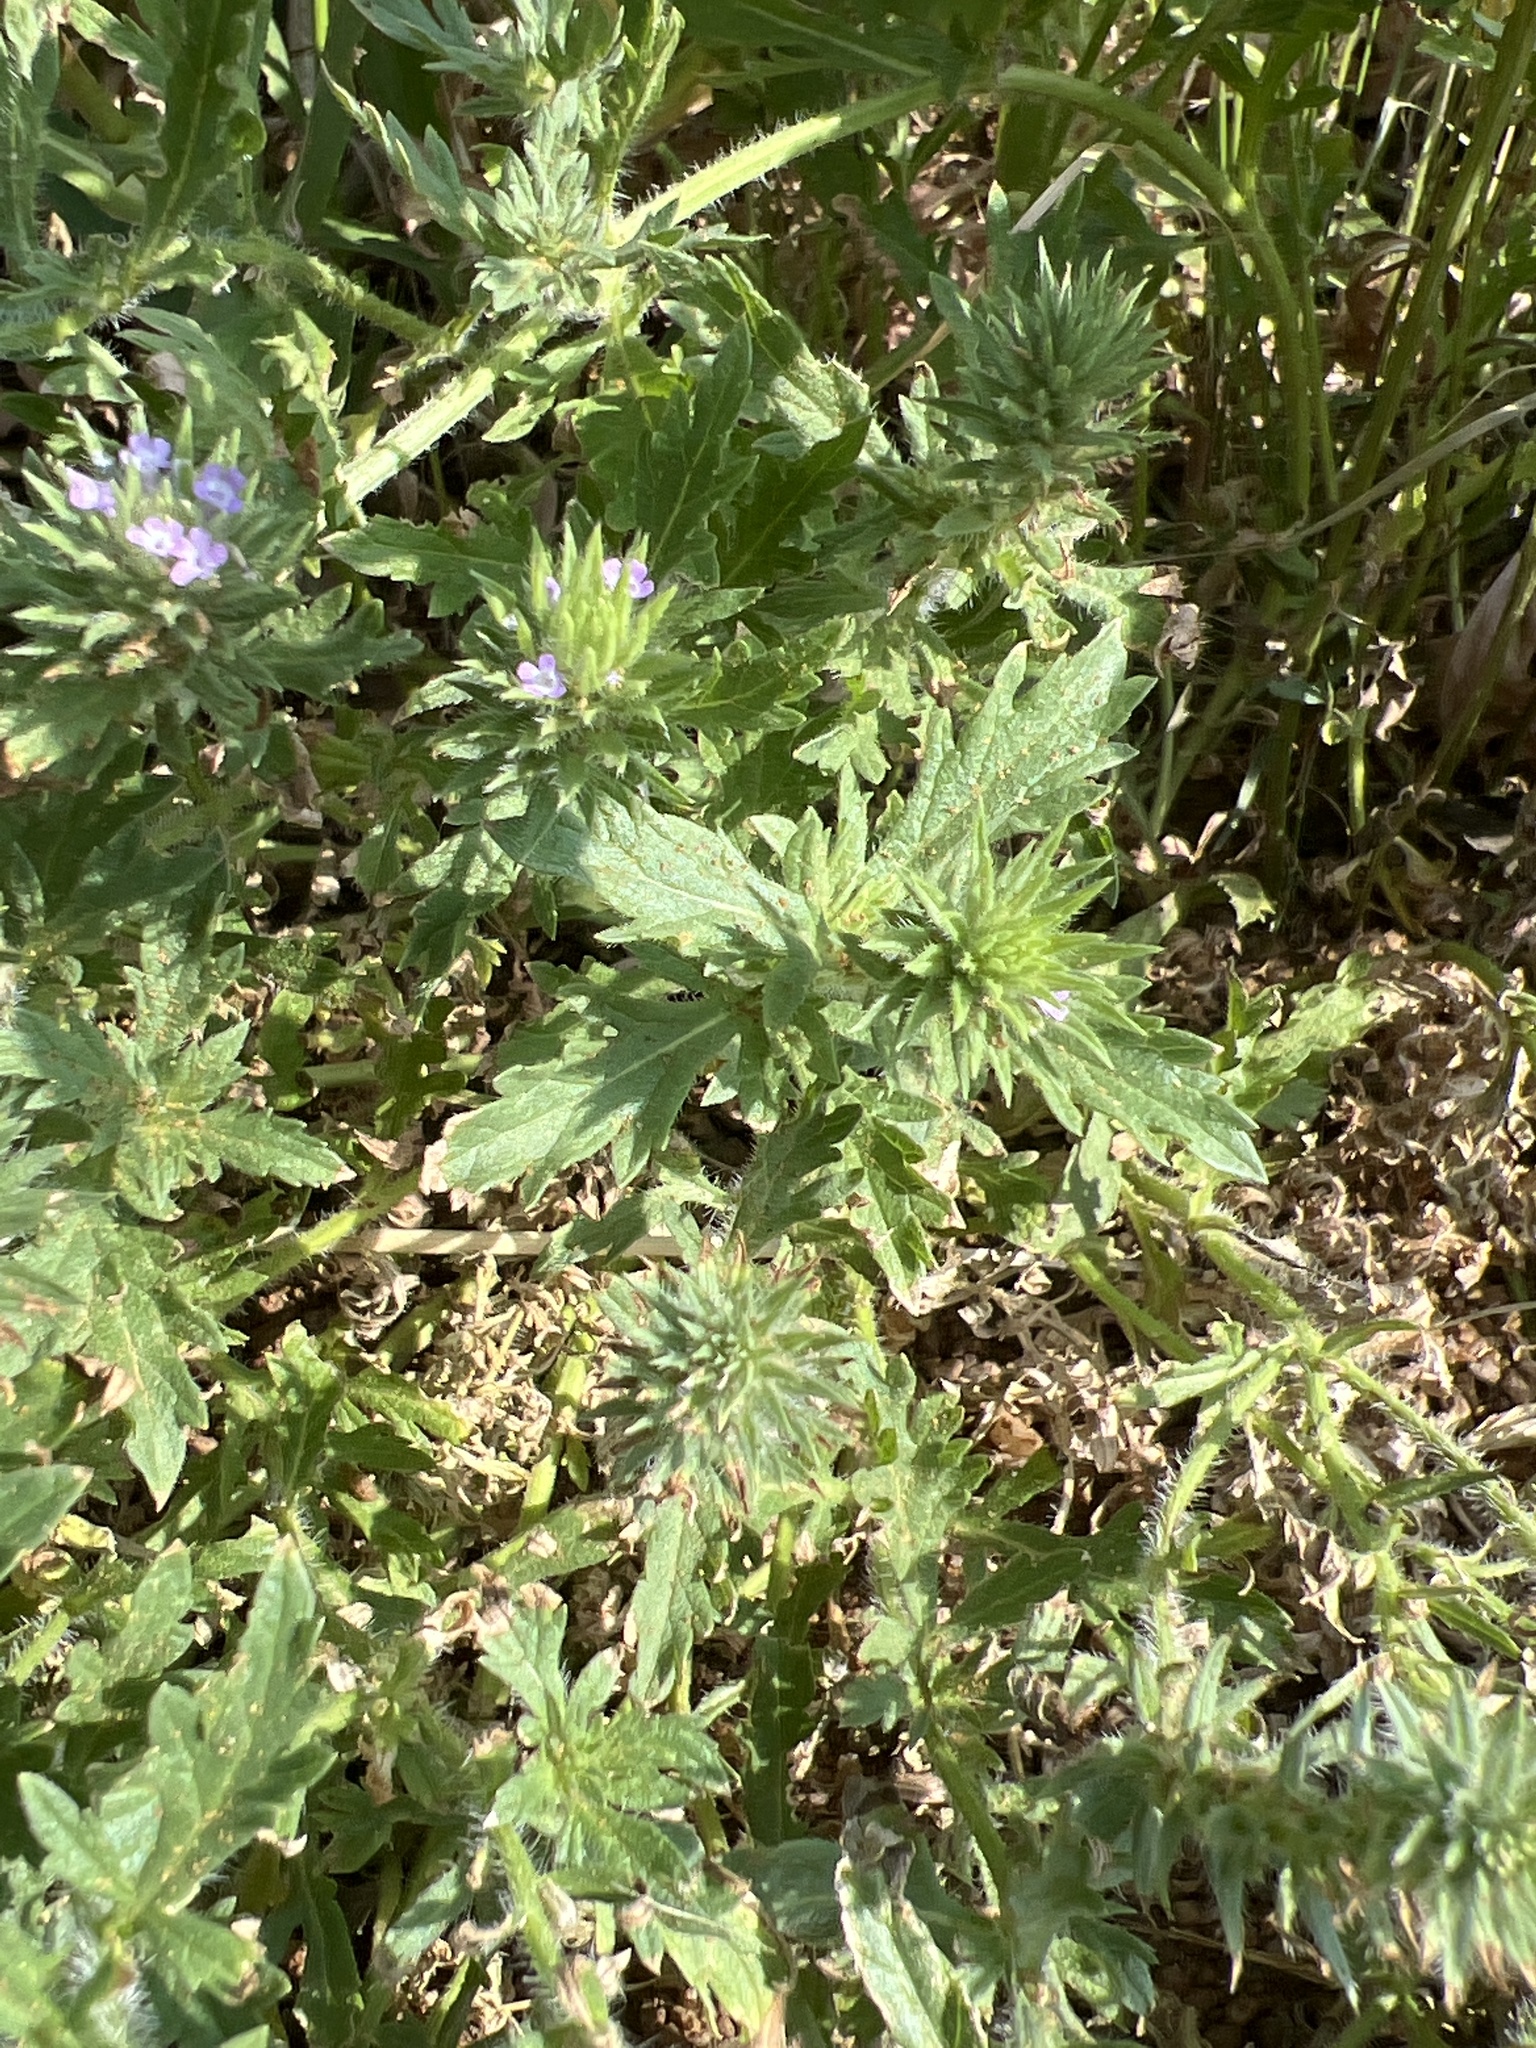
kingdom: Plantae
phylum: Tracheophyta
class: Magnoliopsida
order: Lamiales
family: Verbenaceae
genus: Verbena
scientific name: Verbena bracteata
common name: Bracted vervain
